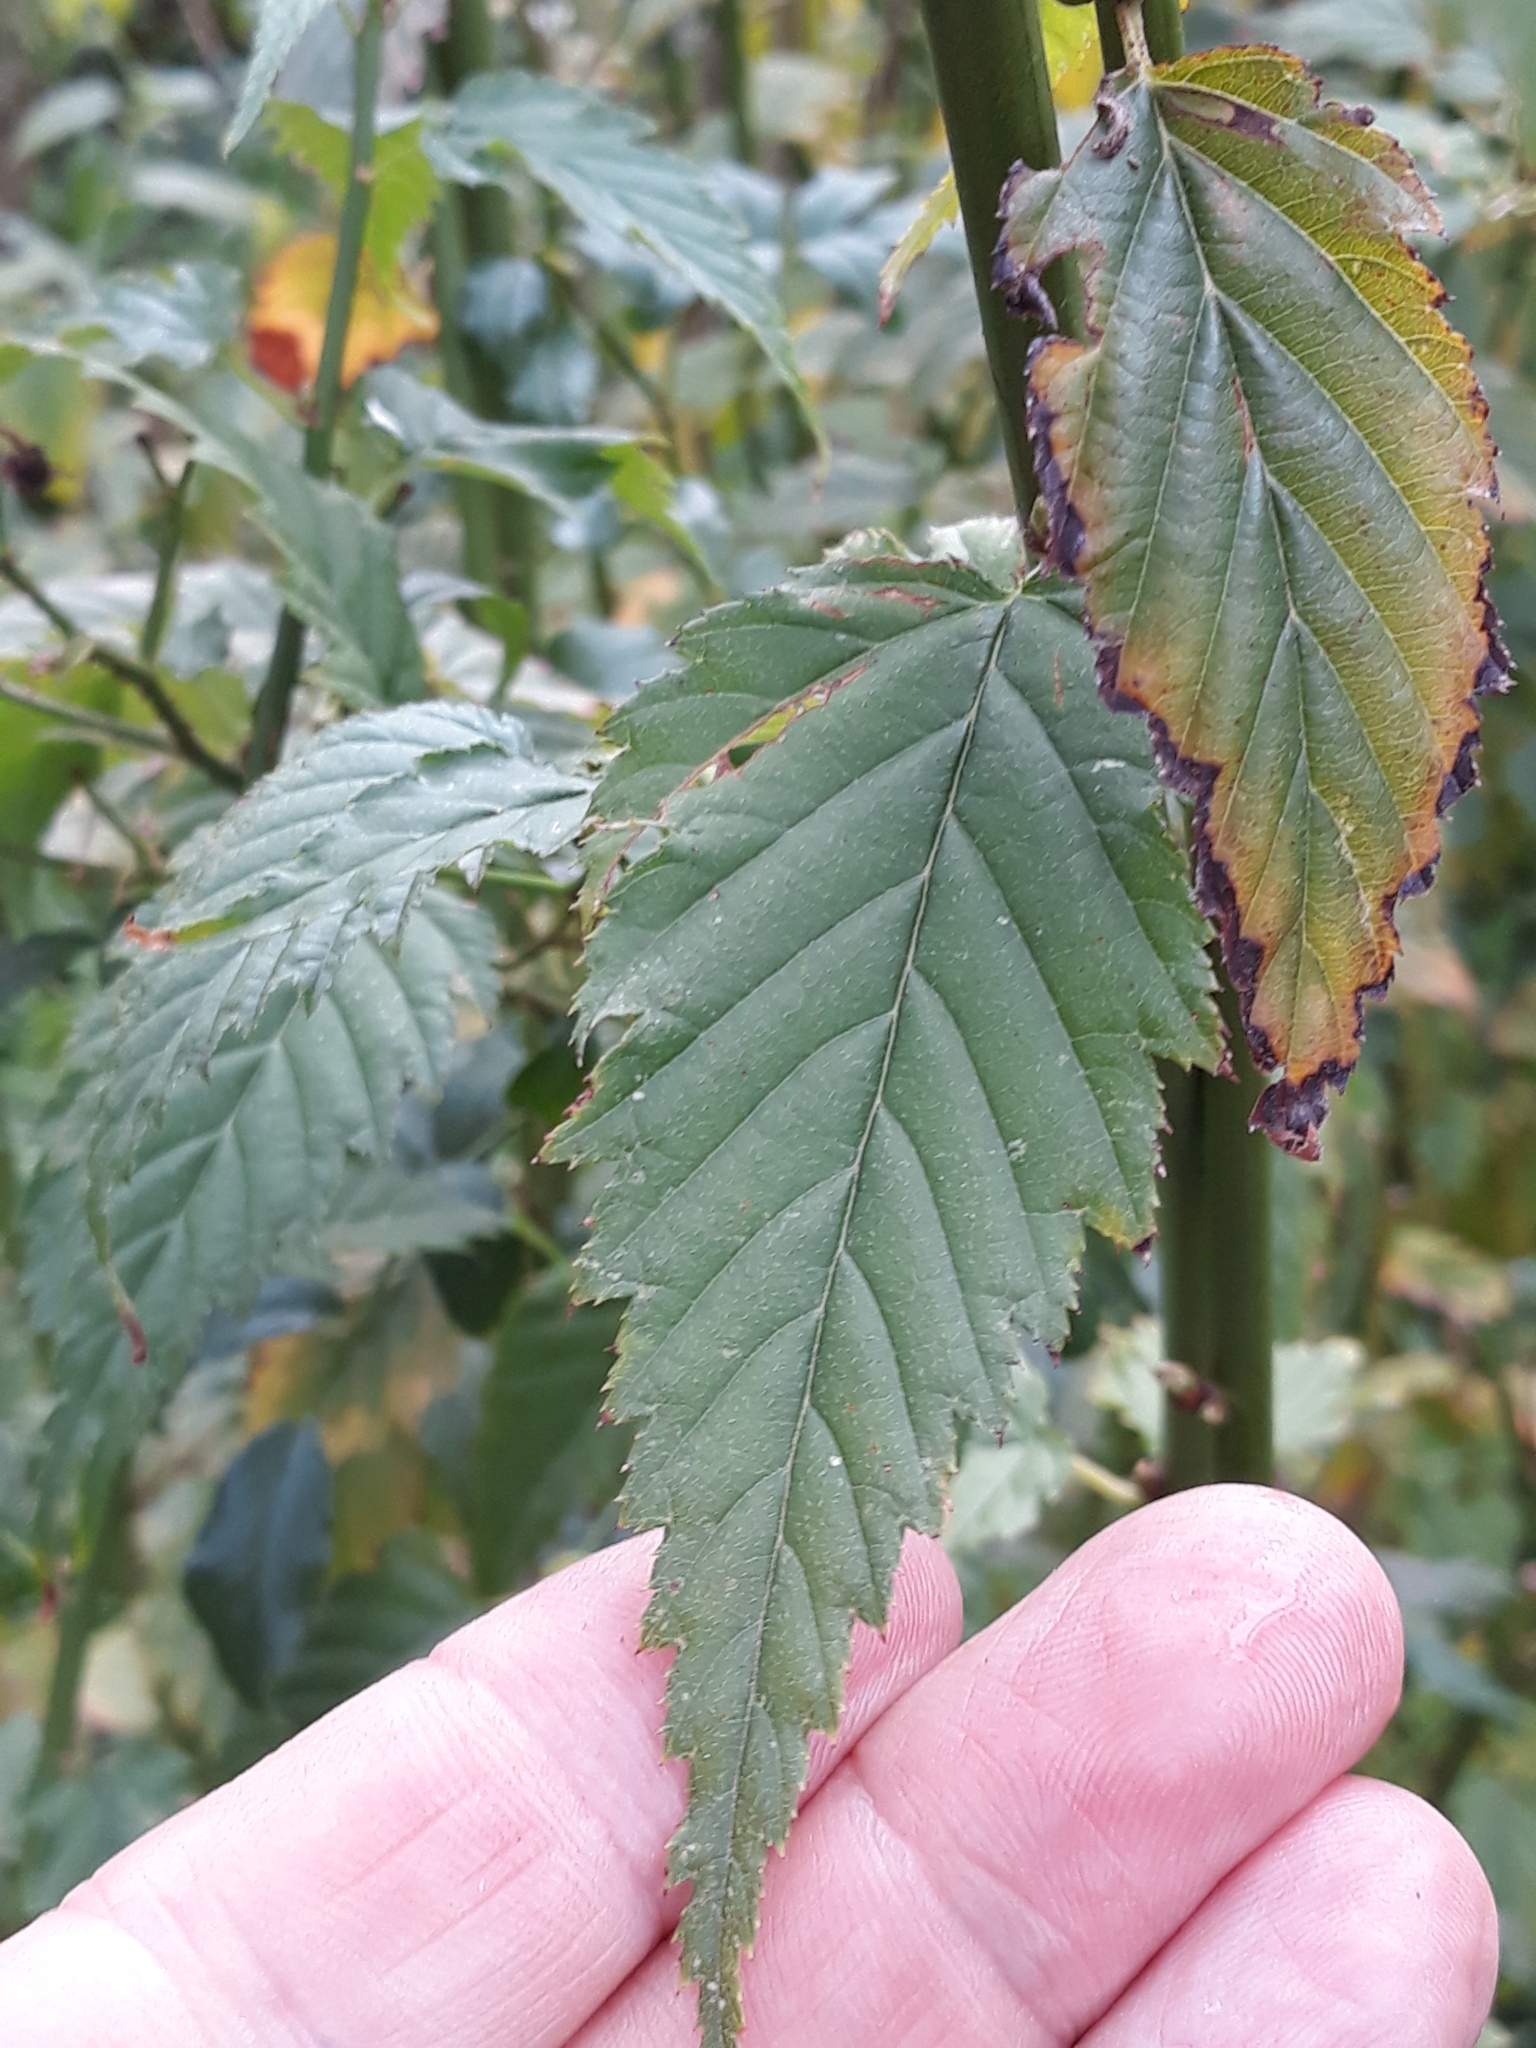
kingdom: Plantae
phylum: Tracheophyta
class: Magnoliopsida
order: Rosales
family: Rosaceae
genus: Kerria
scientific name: Kerria japonica
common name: Japanese kerria
